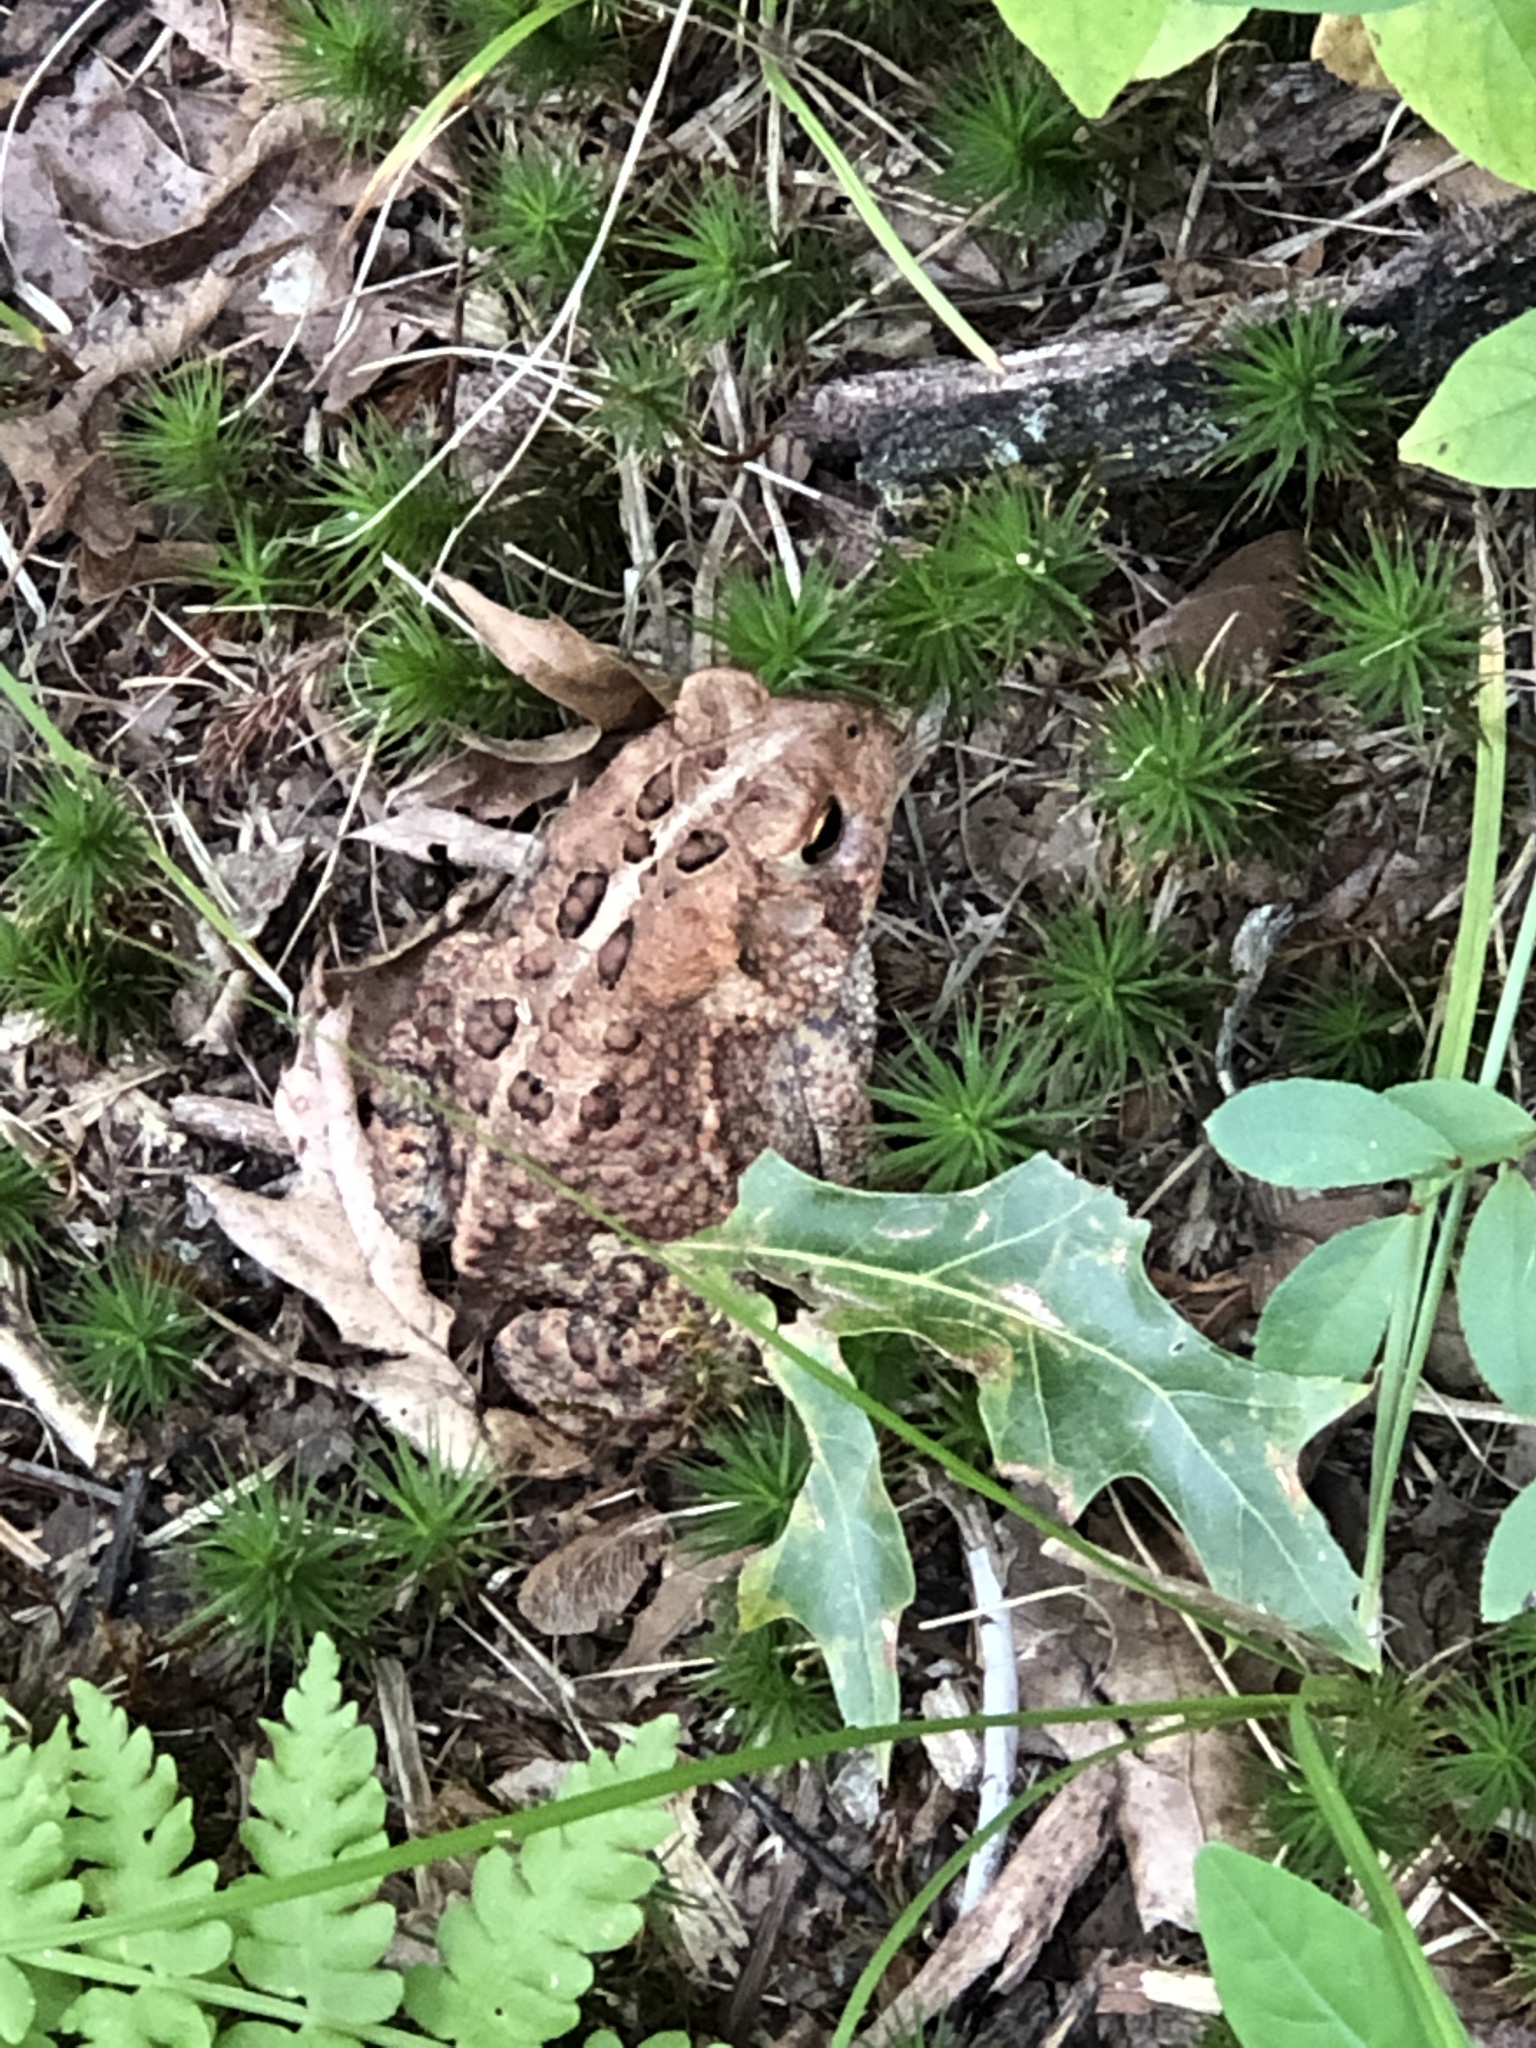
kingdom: Animalia
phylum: Chordata
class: Amphibia
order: Anura
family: Bufonidae
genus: Anaxyrus
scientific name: Anaxyrus americanus
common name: American toad
